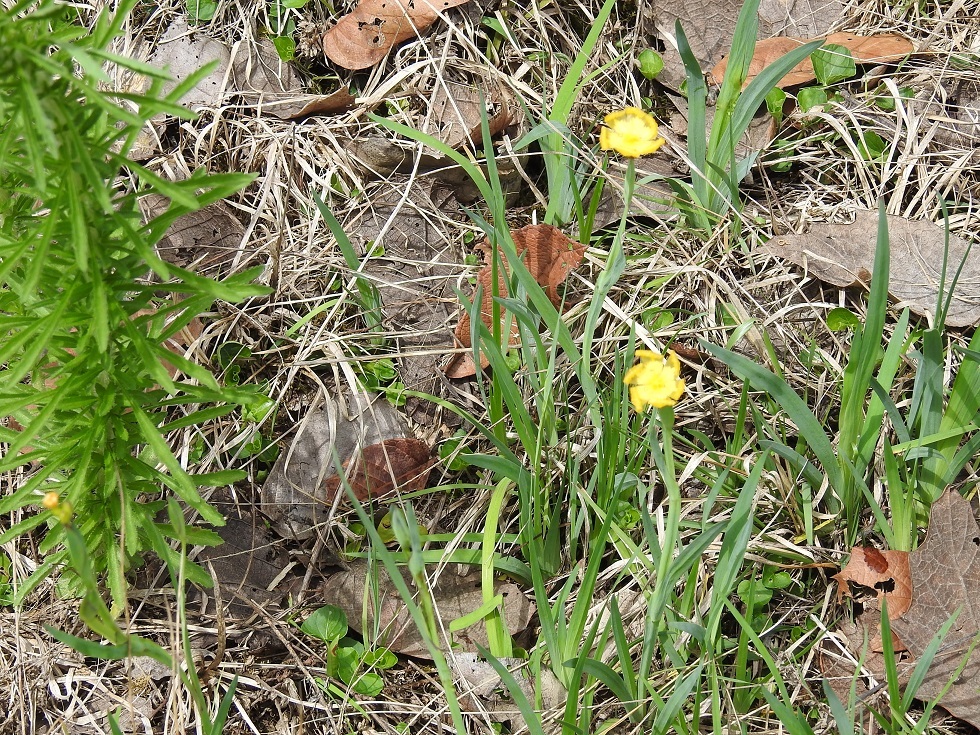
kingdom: Plantae
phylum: Tracheophyta
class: Liliopsida
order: Asparagales
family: Iridaceae
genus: Sisyrinchium
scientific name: Sisyrinchium angustissimum
